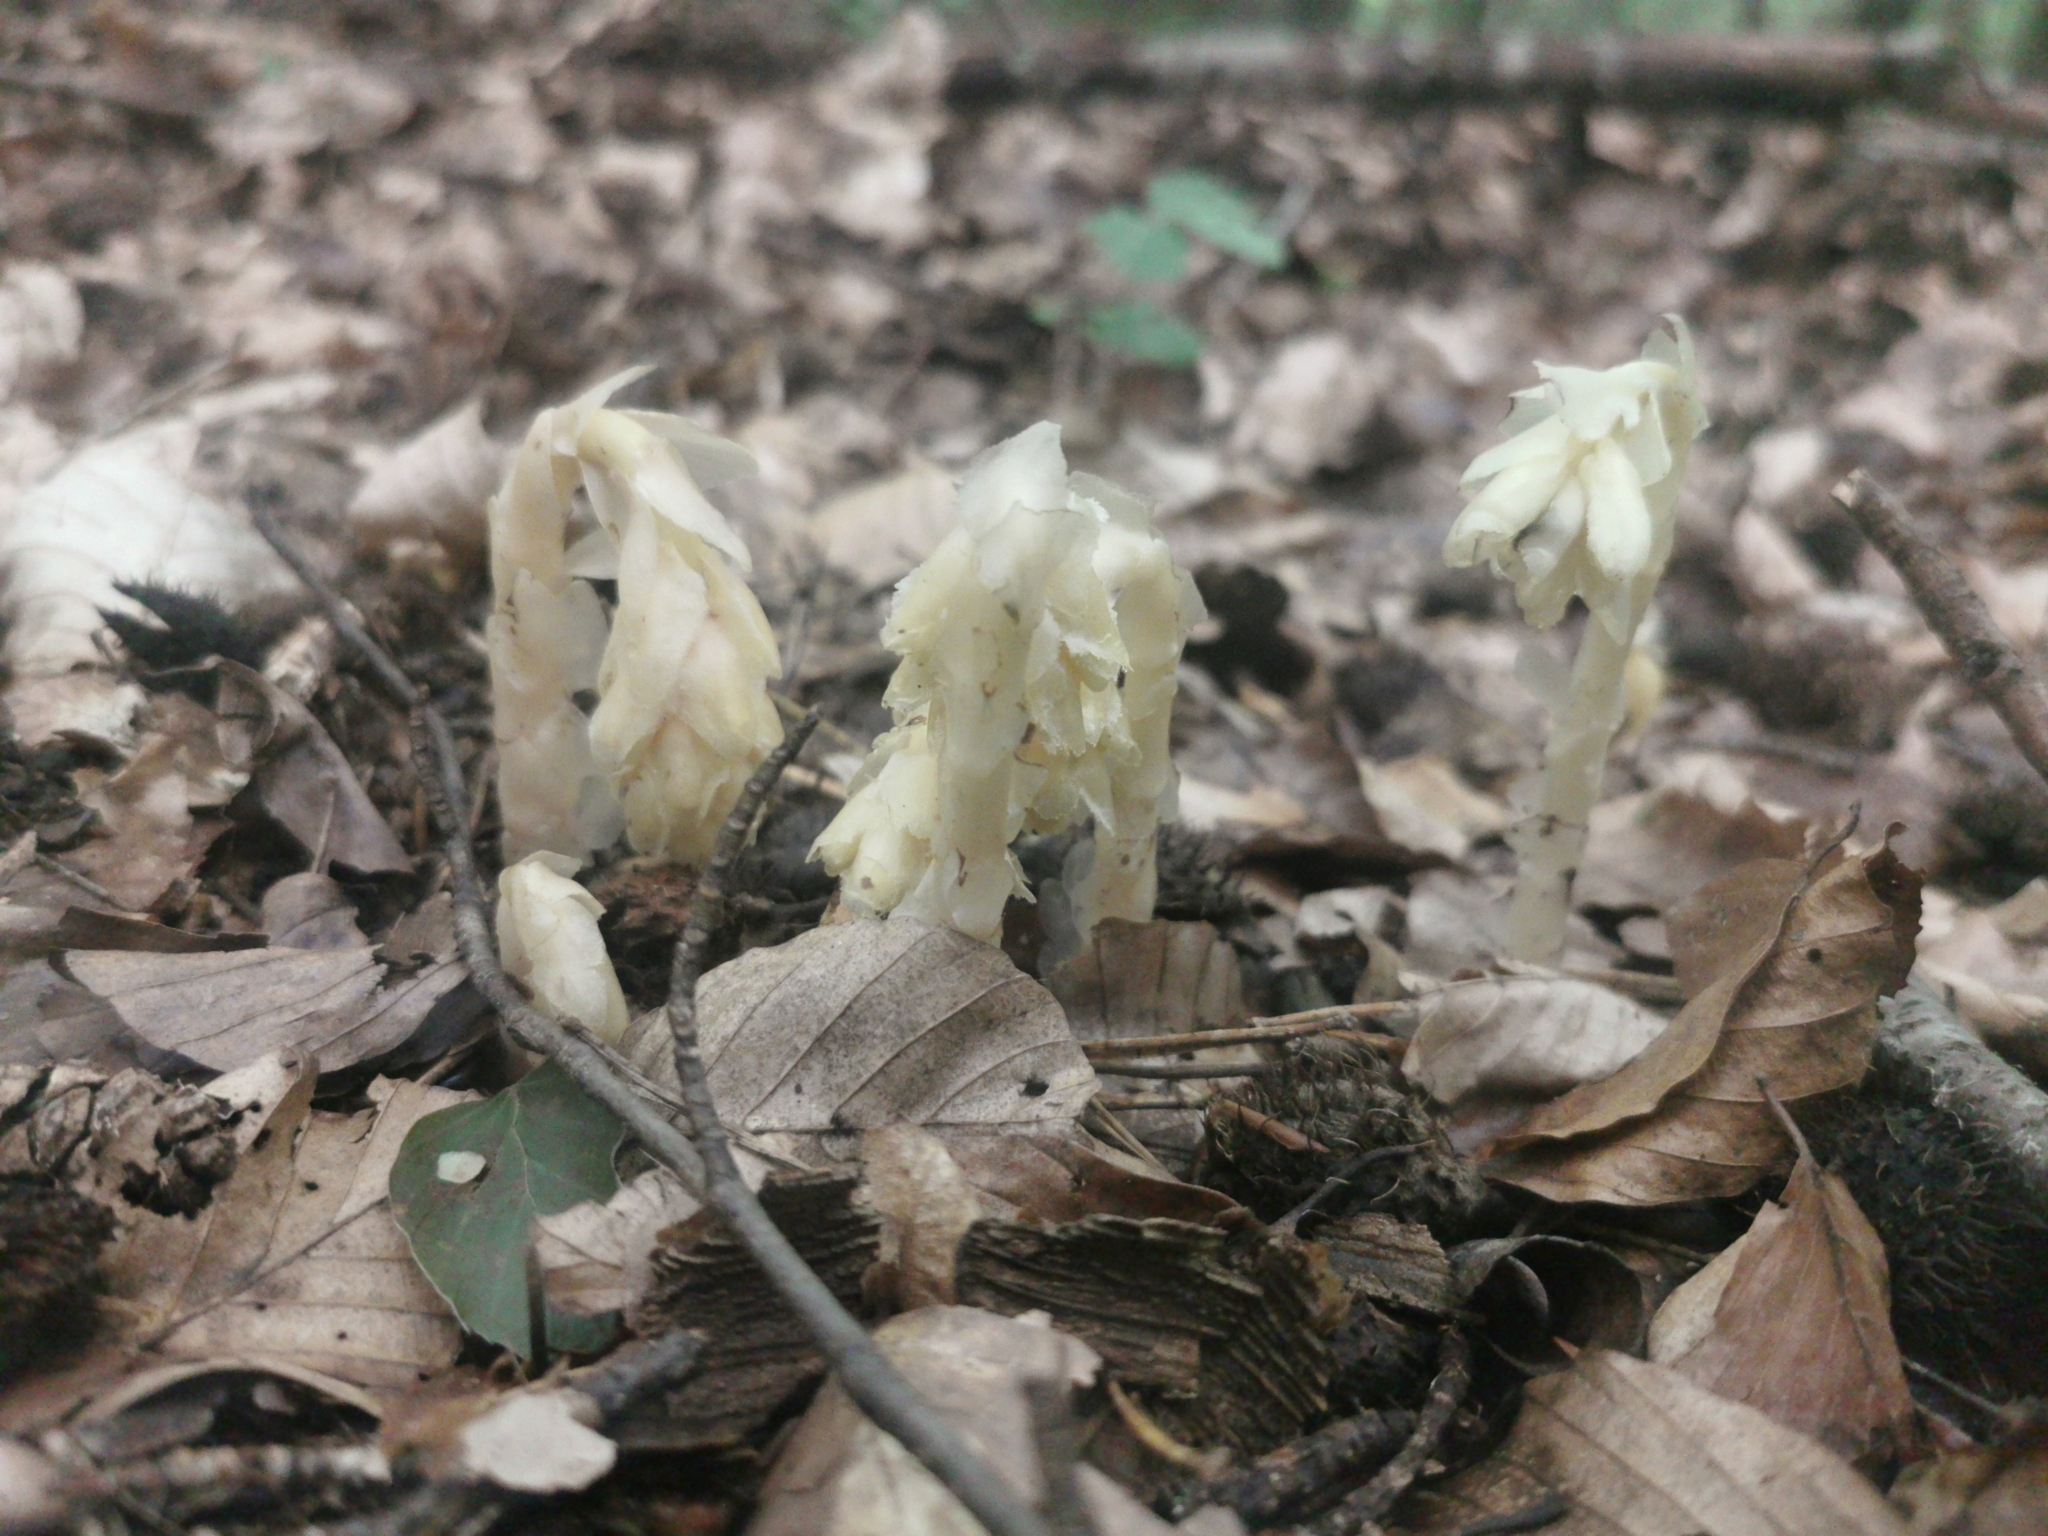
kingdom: Plantae
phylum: Tracheophyta
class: Magnoliopsida
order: Ericales
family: Ericaceae
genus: Hypopitys
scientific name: Hypopitys monotropa
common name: Yellow bird's-nest
